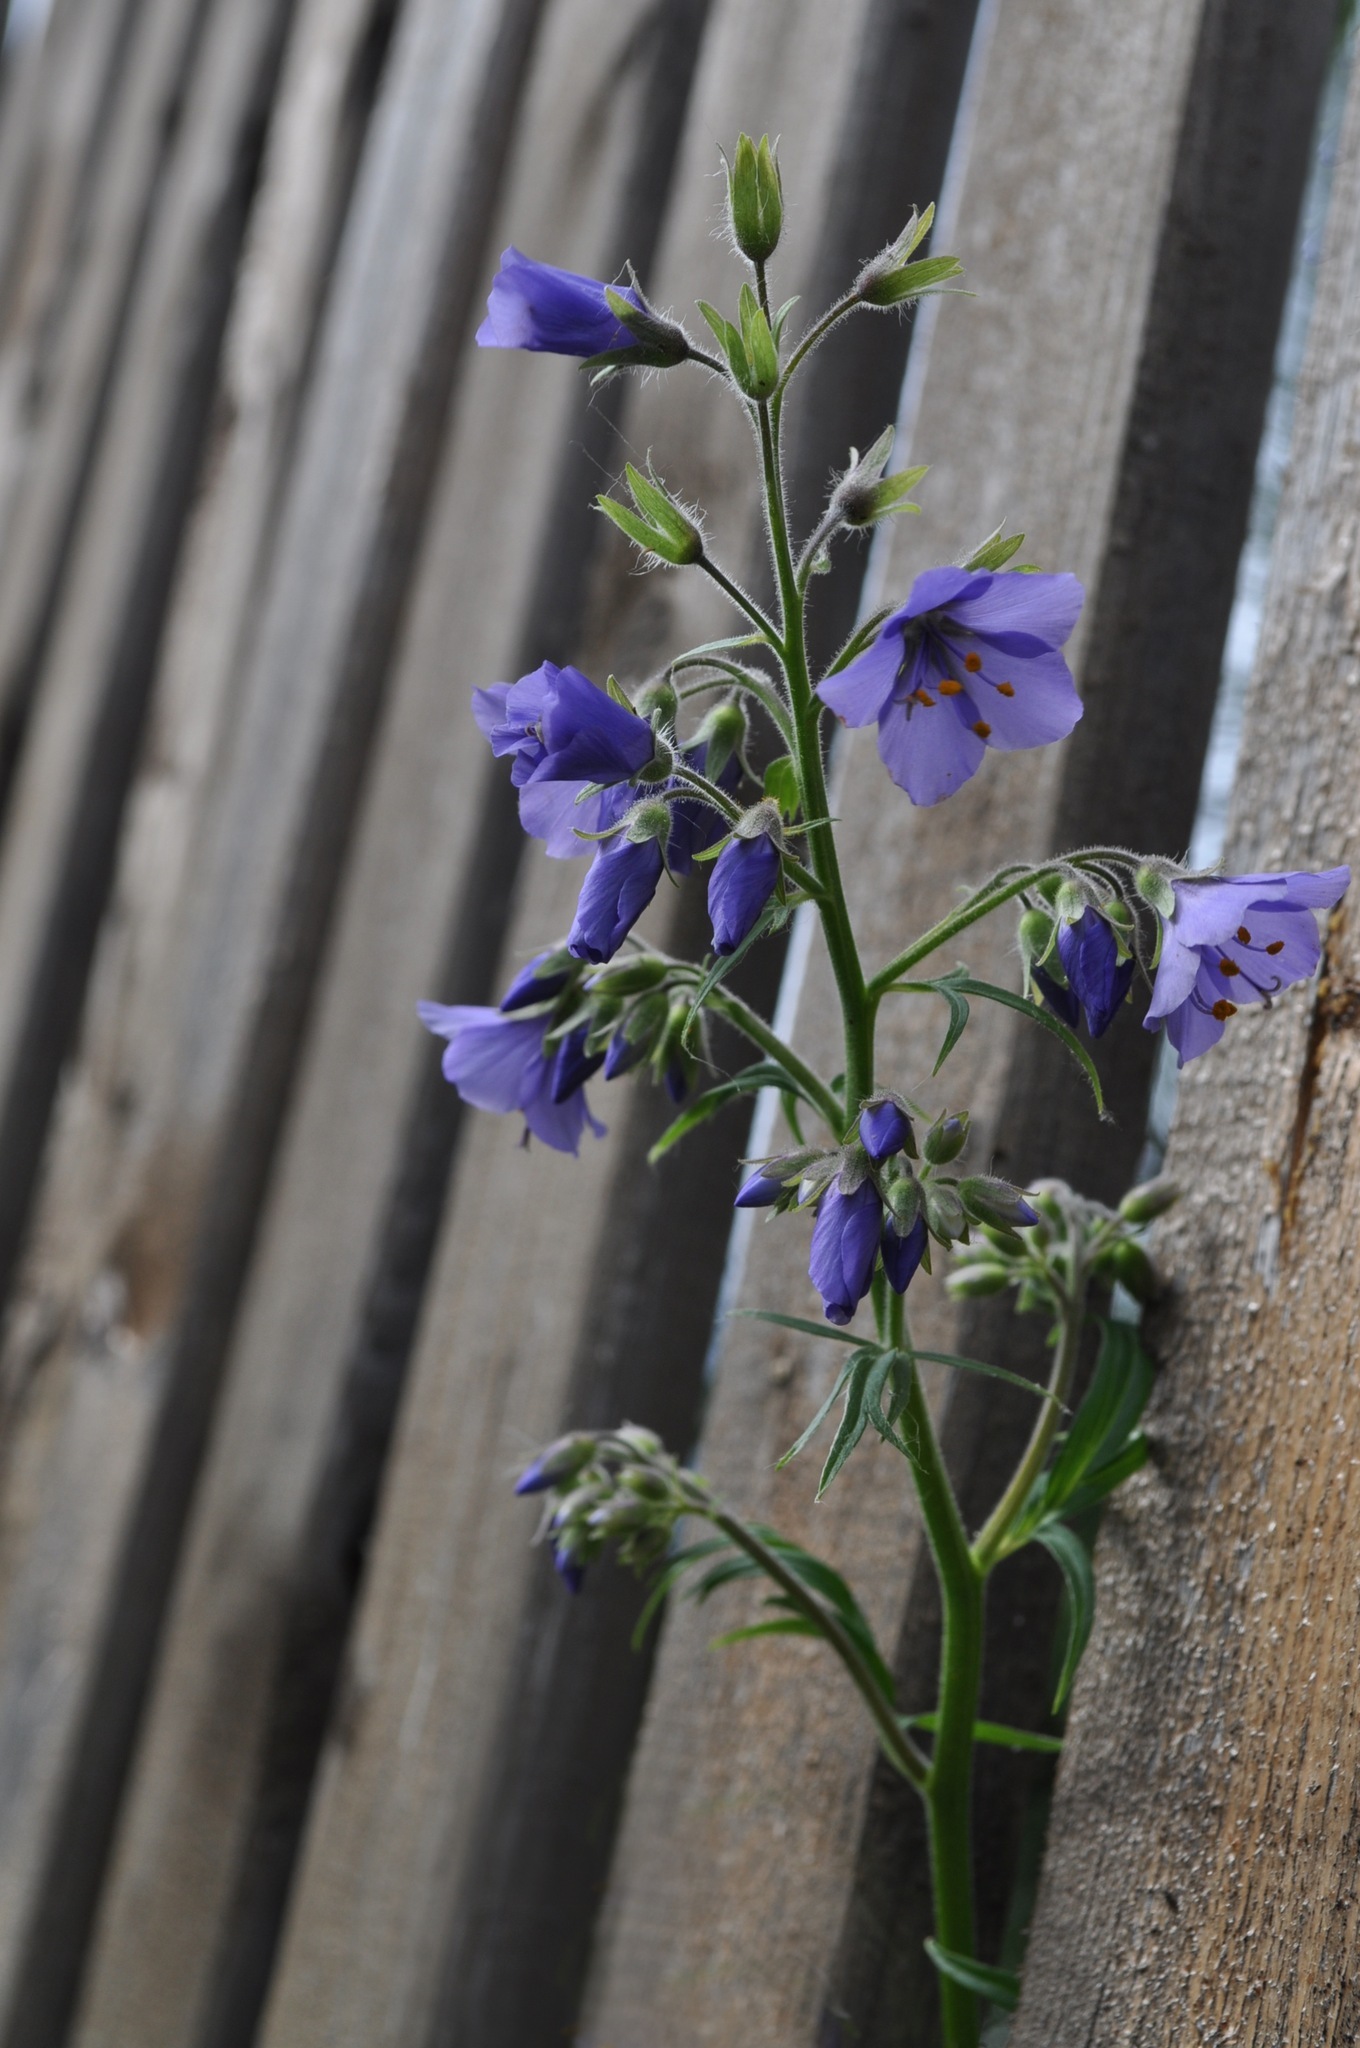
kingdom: Plantae
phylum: Tracheophyta
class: Magnoliopsida
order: Ericales
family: Polemoniaceae
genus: Polemonium
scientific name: Polemonium caeruleum
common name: Jacob's-ladder
